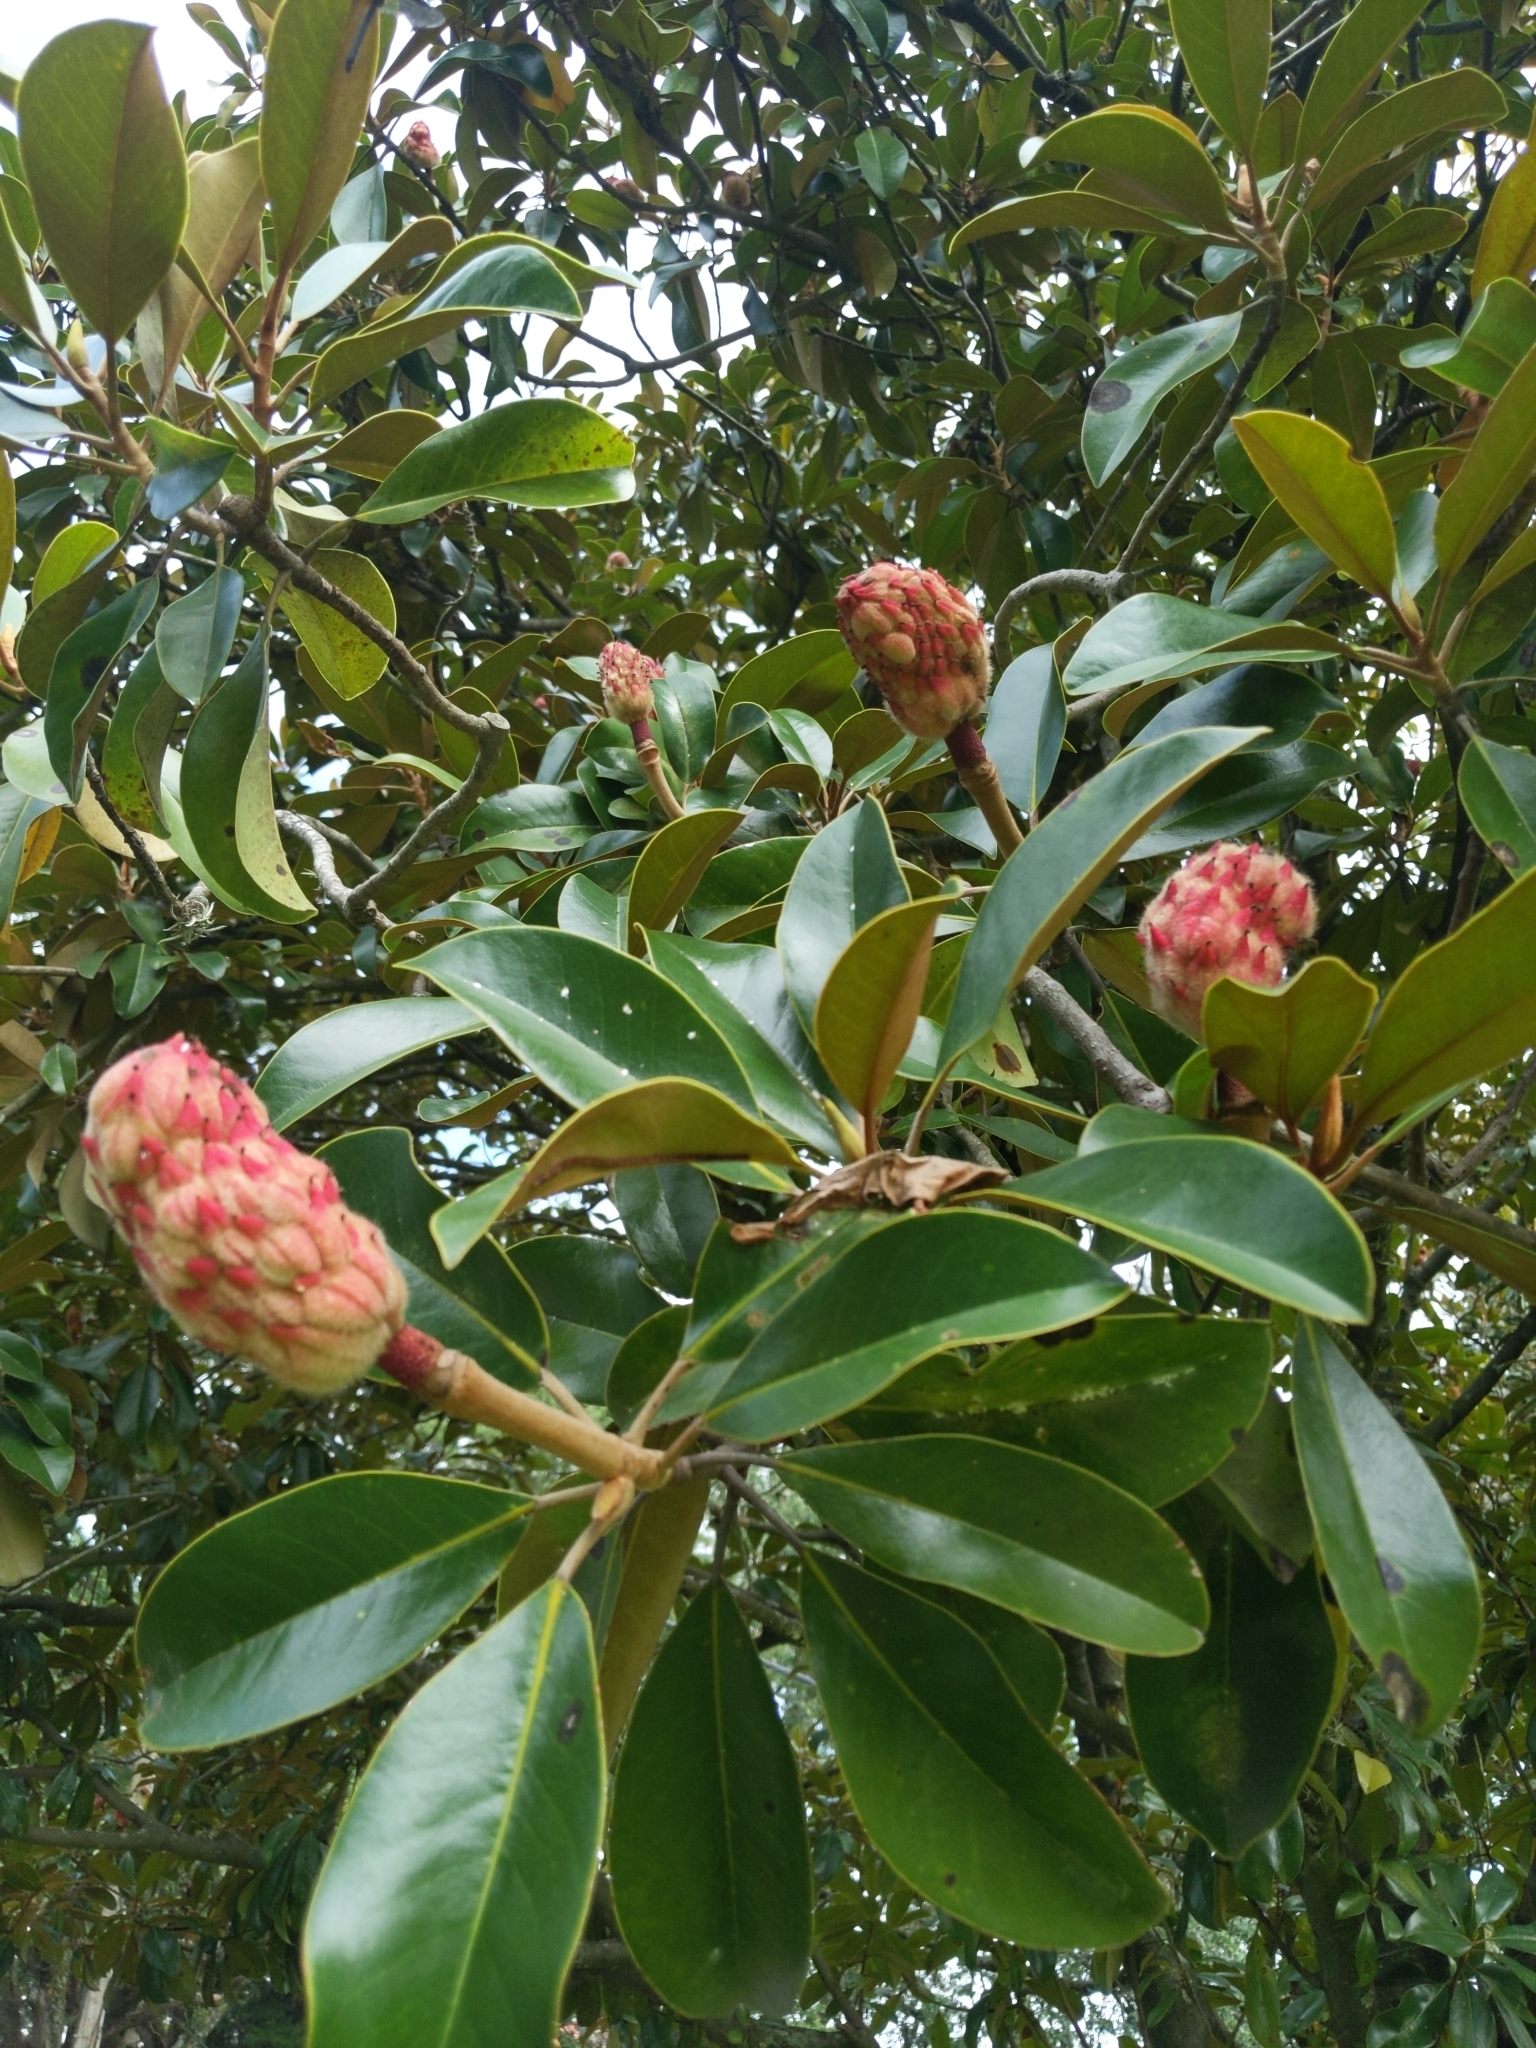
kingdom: Plantae
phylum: Tracheophyta
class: Magnoliopsida
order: Magnoliales
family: Magnoliaceae
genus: Magnolia
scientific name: Magnolia grandiflora
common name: Southern magnolia
